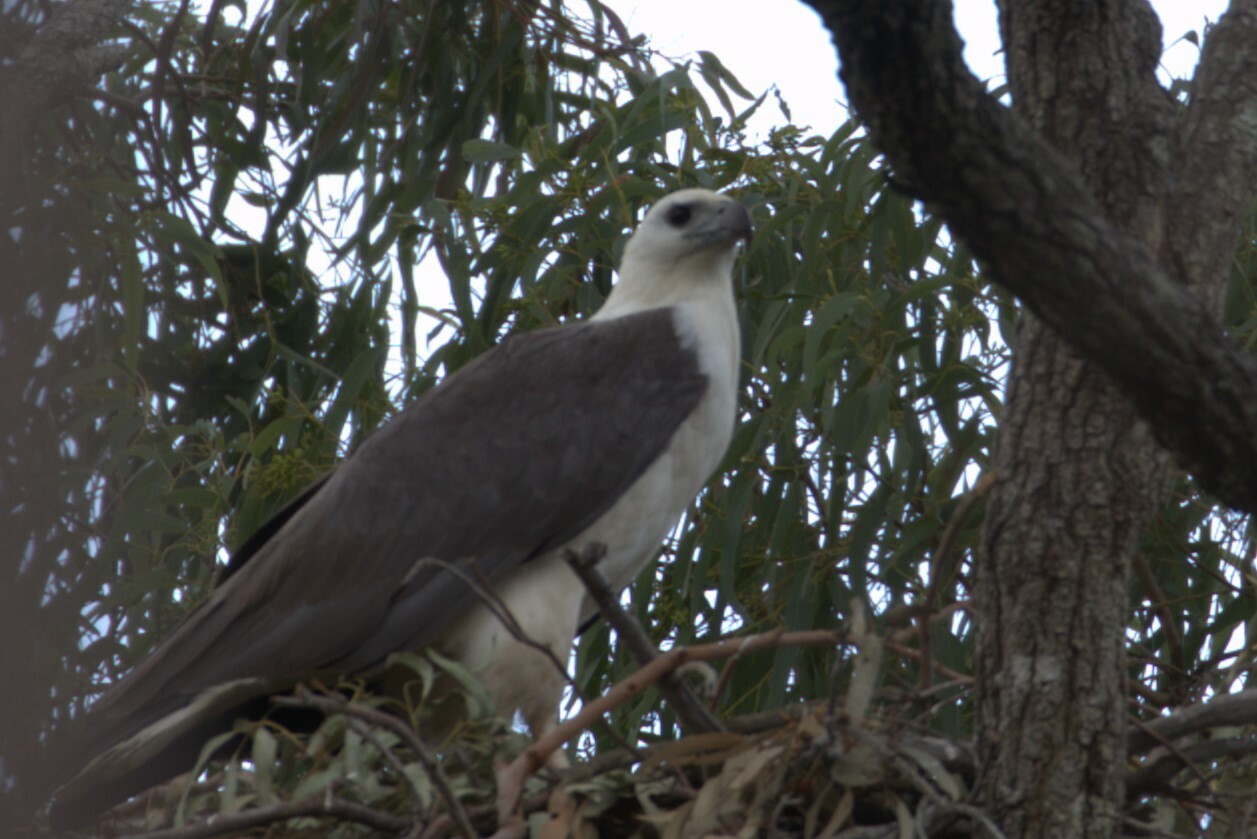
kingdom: Animalia
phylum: Chordata
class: Aves
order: Accipitriformes
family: Accipitridae
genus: Haliaeetus
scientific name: Haliaeetus leucogaster
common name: White-bellied sea eagle
